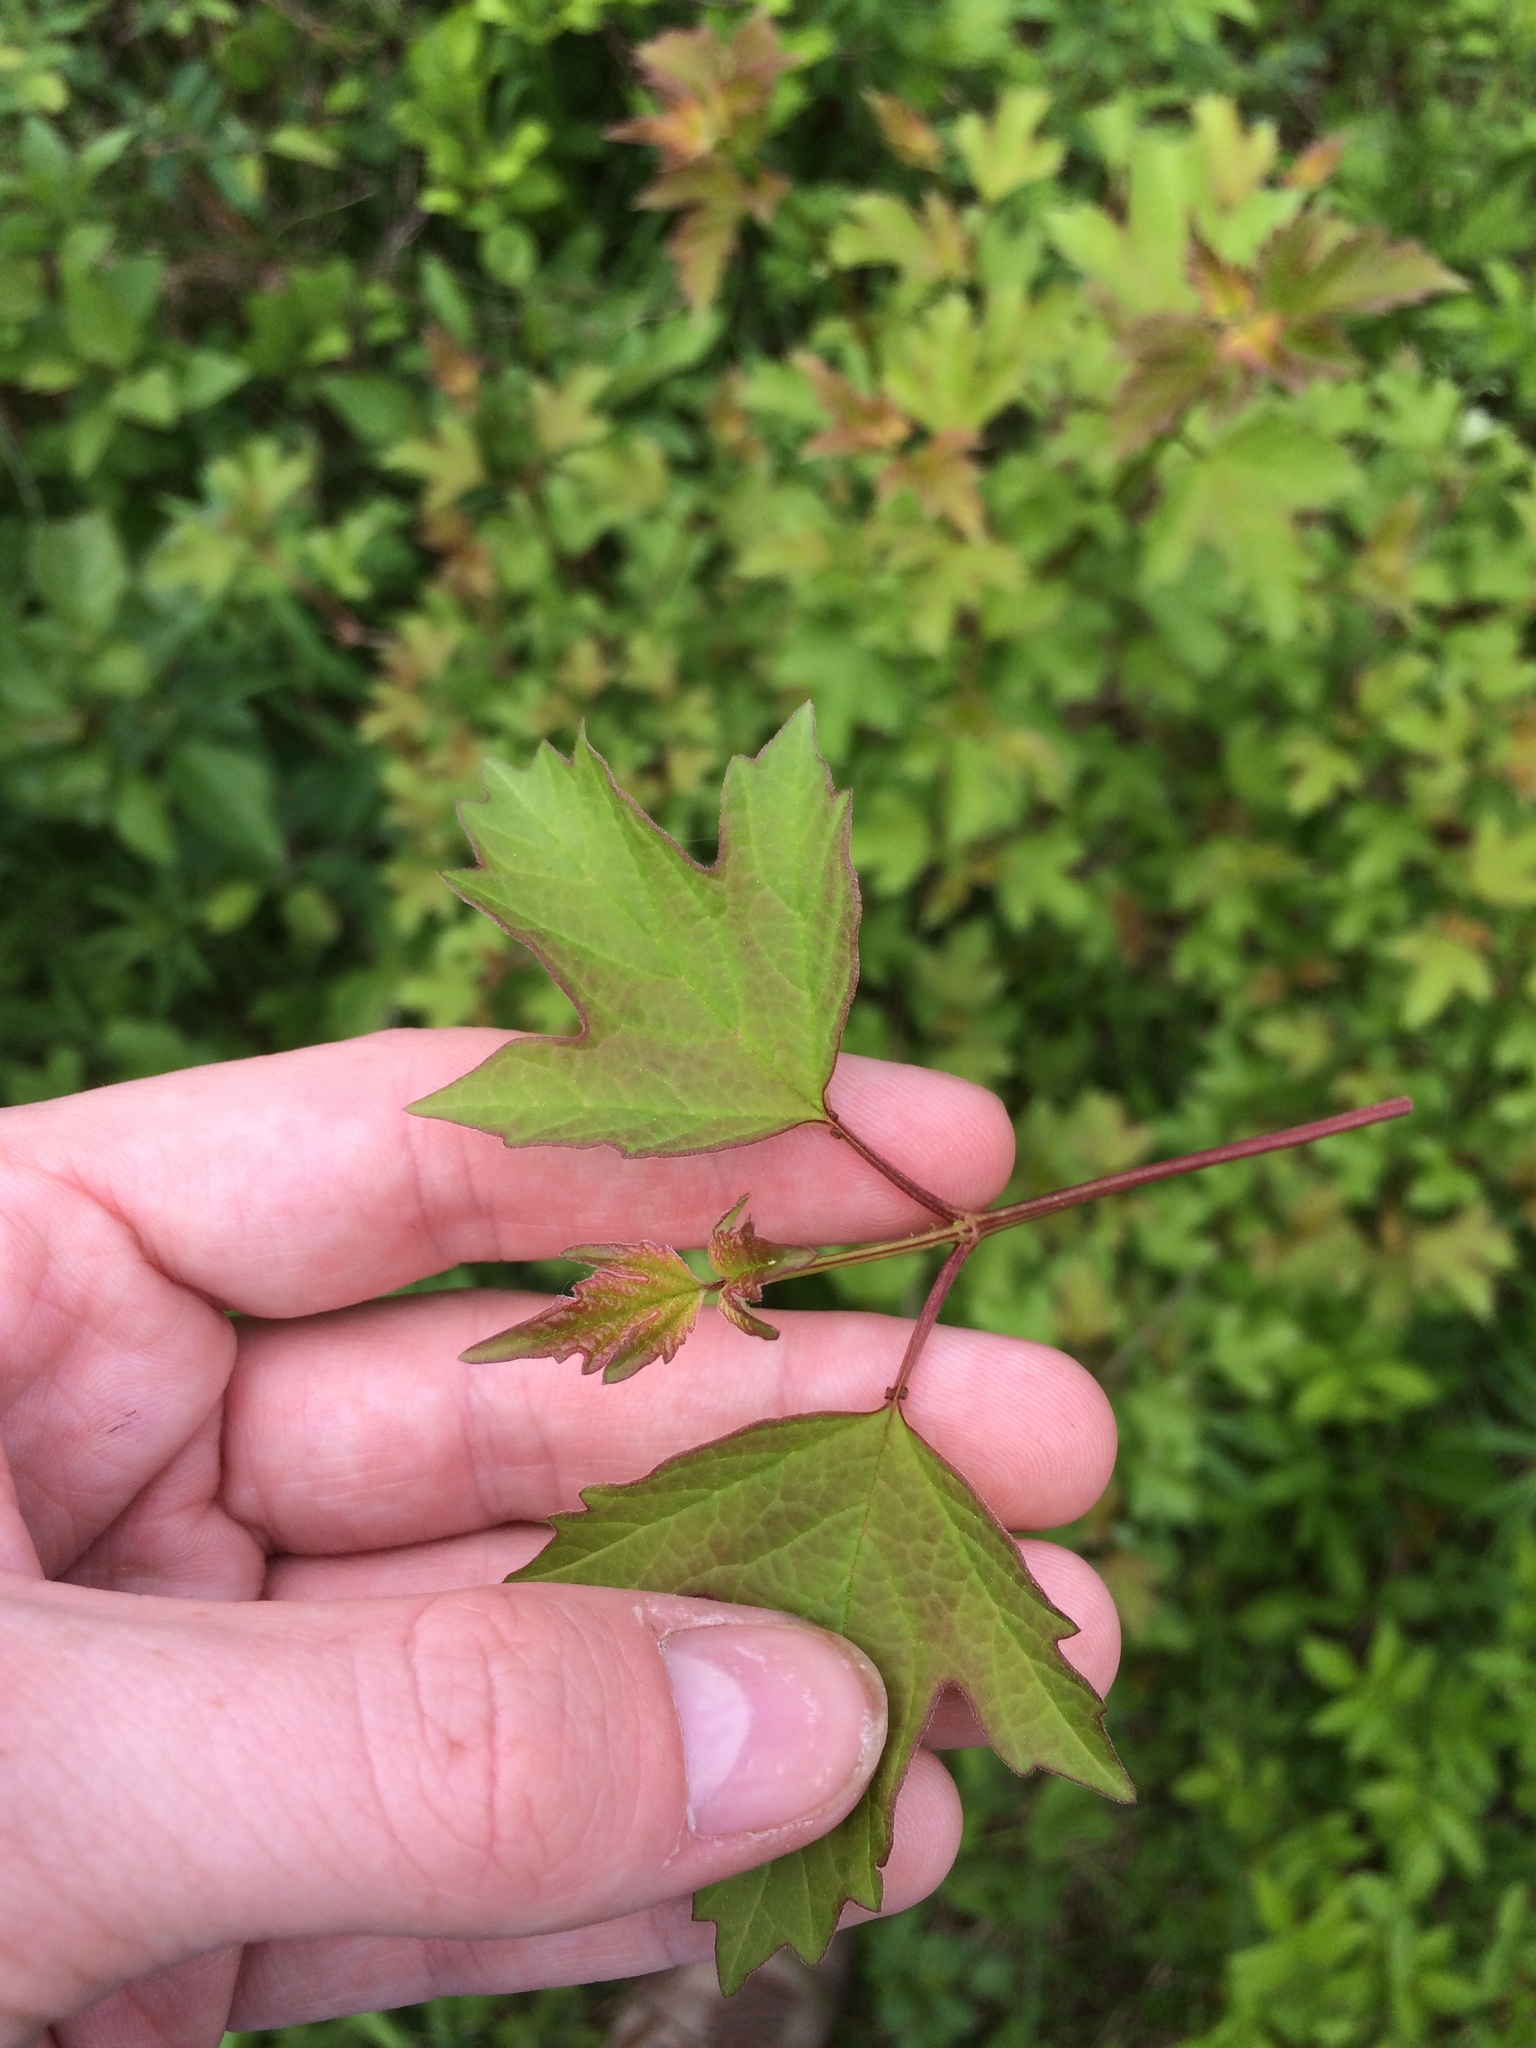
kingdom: Plantae
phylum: Tracheophyta
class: Magnoliopsida
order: Dipsacales
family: Viburnaceae
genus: Viburnum
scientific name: Viburnum opulus
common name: Guelder-rose
